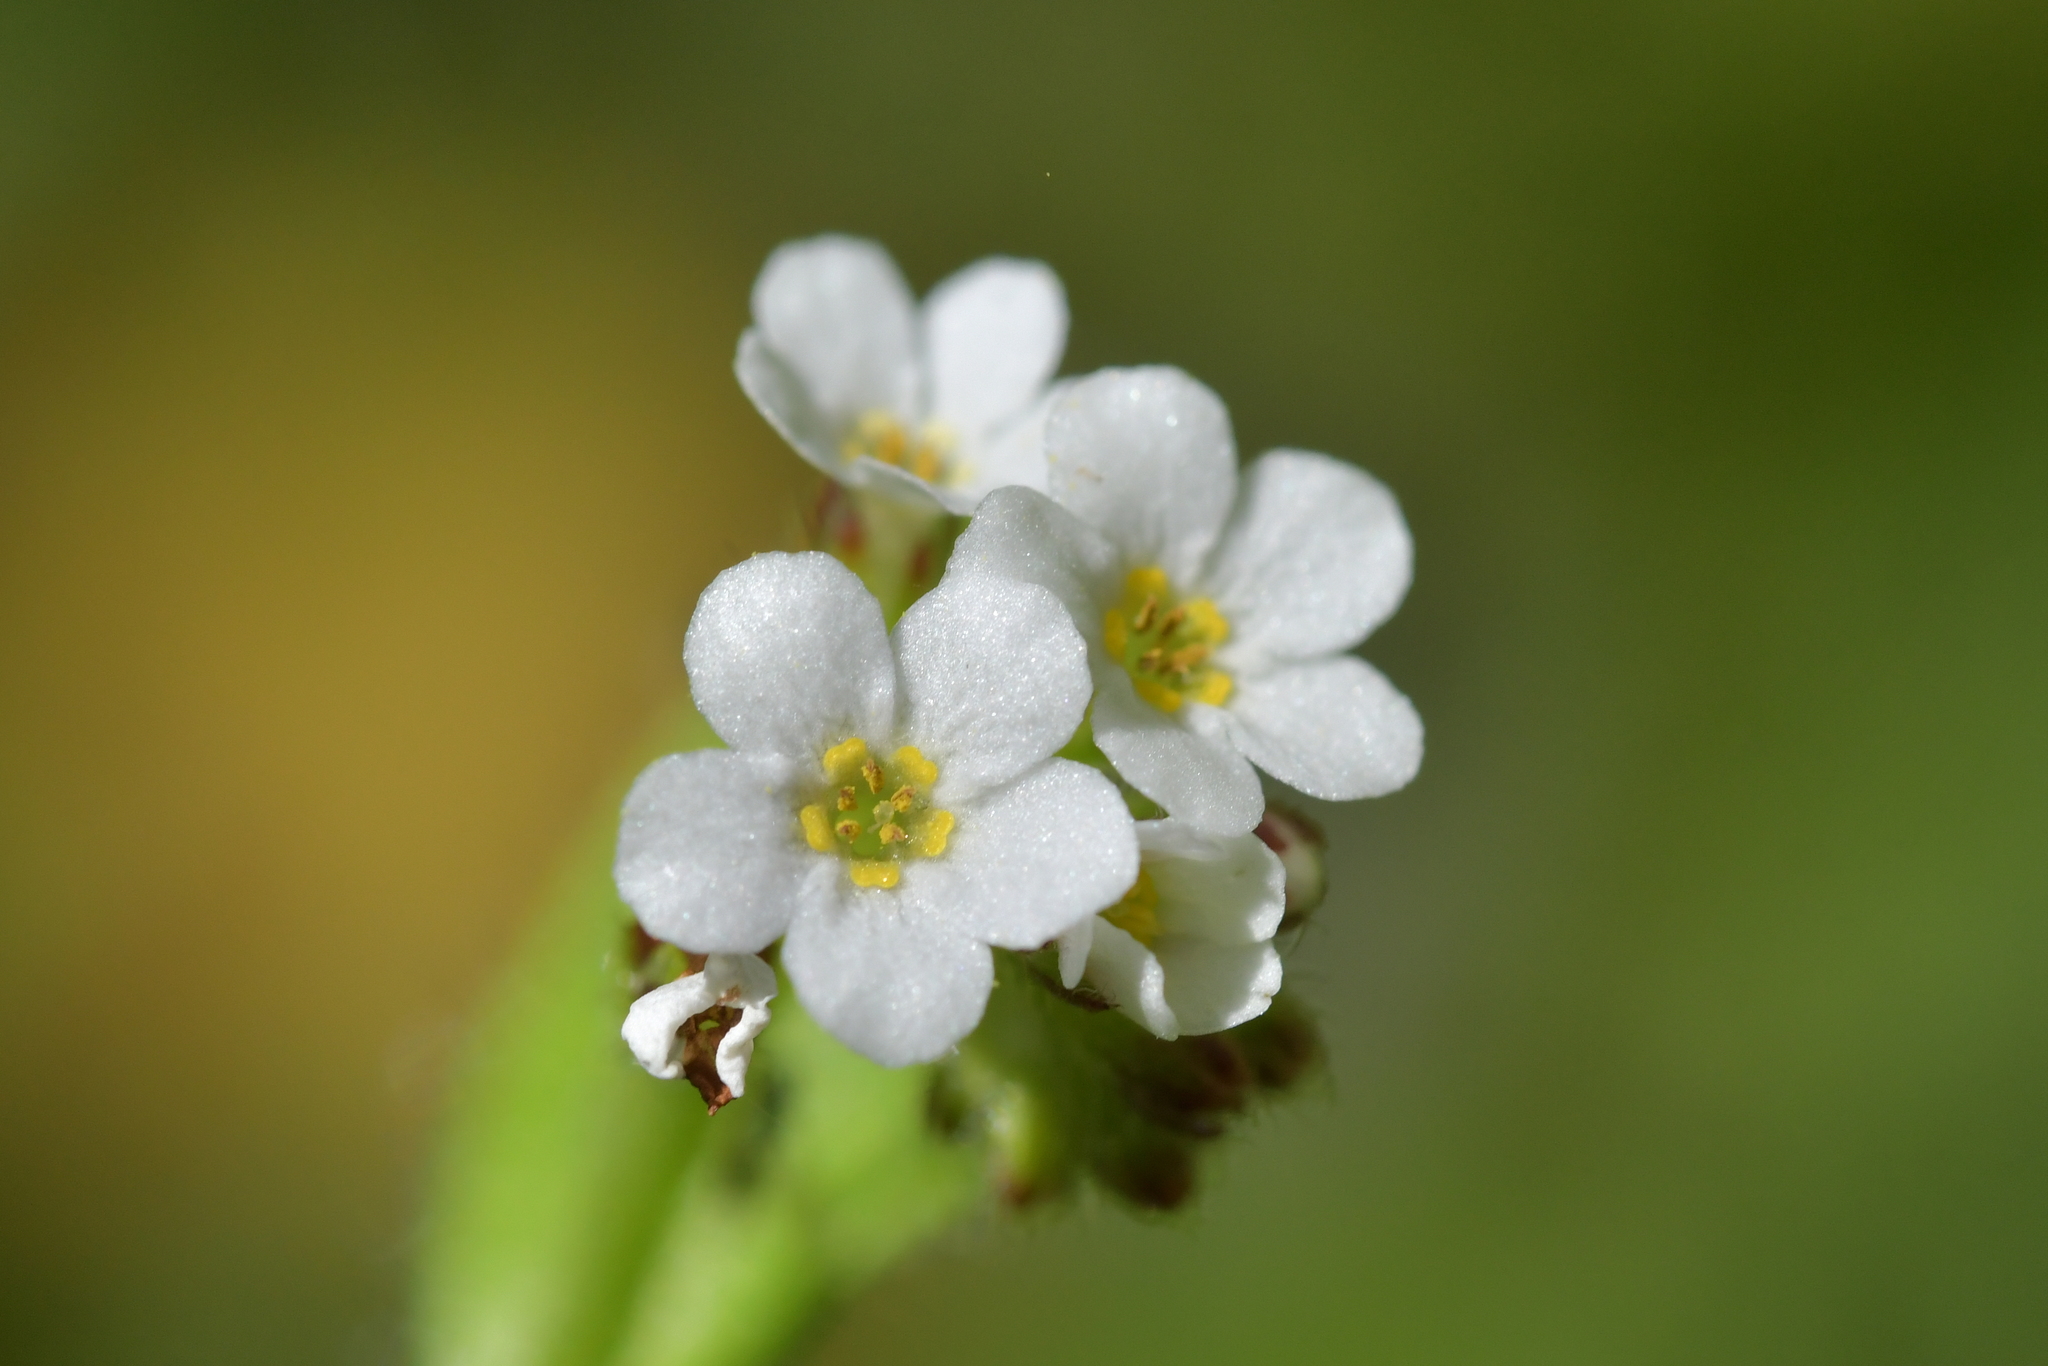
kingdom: Plantae
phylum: Tracheophyta
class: Magnoliopsida
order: Boraginales
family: Boraginaceae
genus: Myosotis
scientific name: Myosotis forsteri
